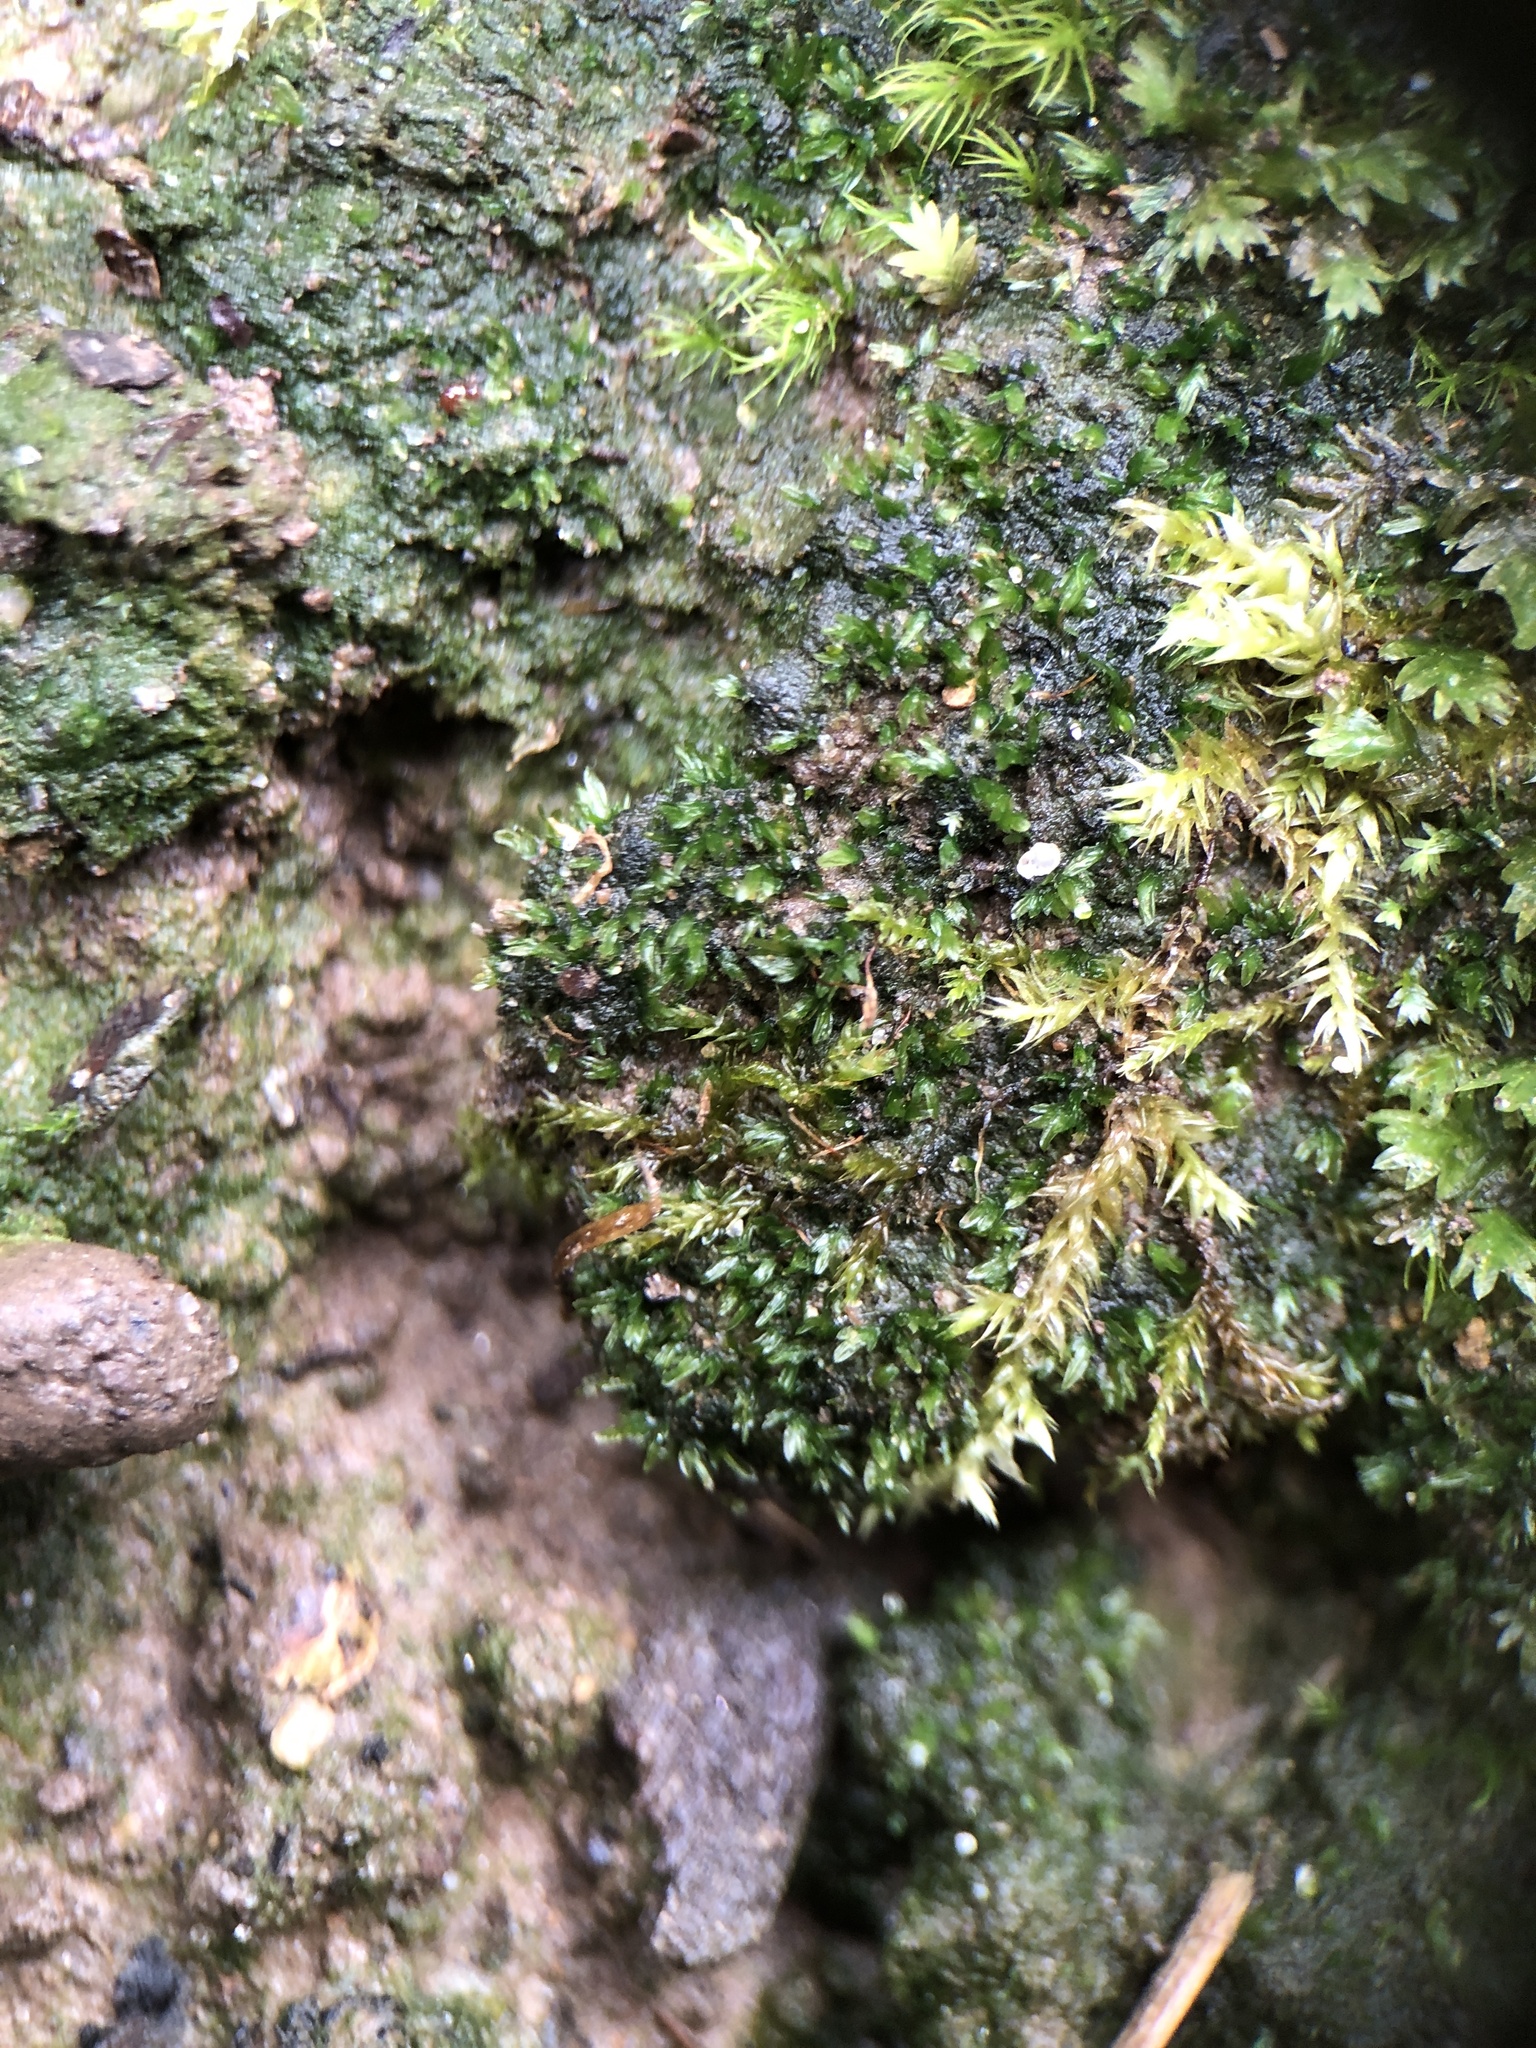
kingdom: Plantae
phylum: Bryophyta
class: Bryopsida
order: Dicranales
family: Fissidentaceae
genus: Fissidens
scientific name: Fissidens exilis
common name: Pygmy pocket moss
